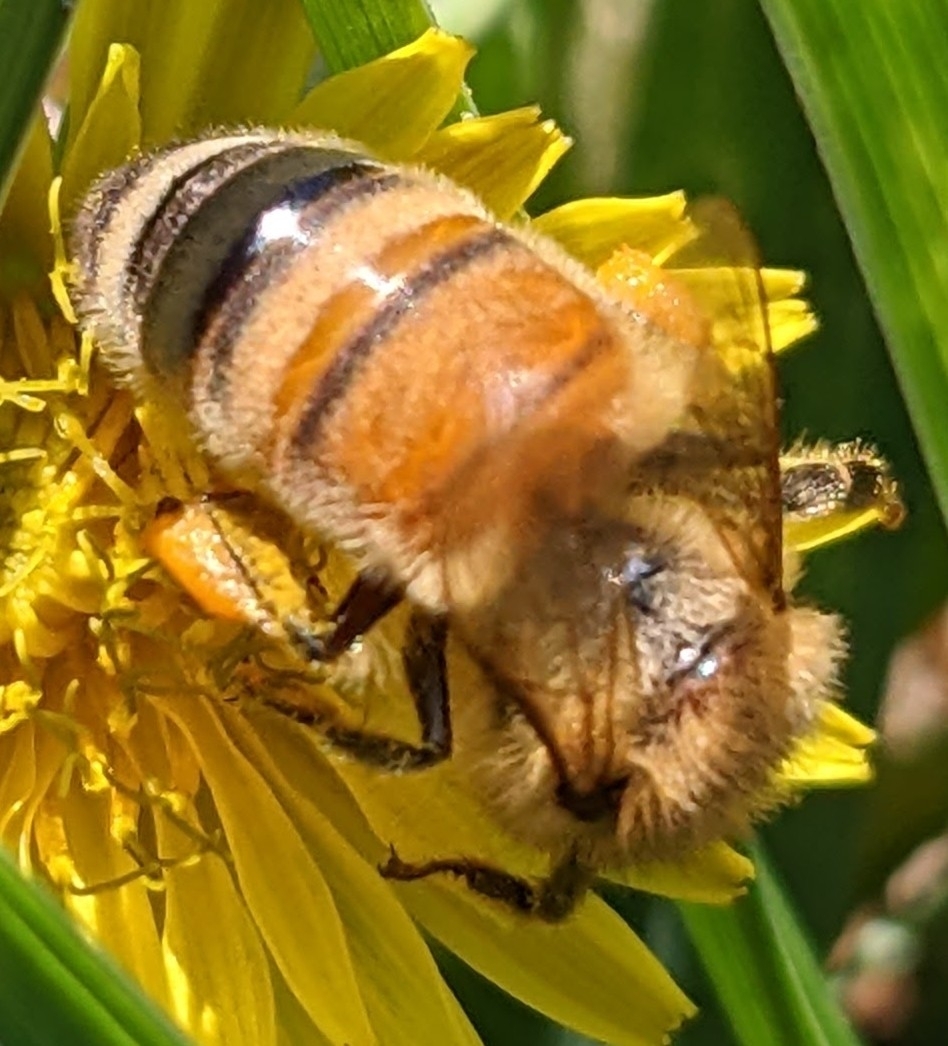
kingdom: Animalia
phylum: Arthropoda
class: Insecta
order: Hymenoptera
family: Apidae
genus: Apis
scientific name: Apis mellifera
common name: Honey bee
